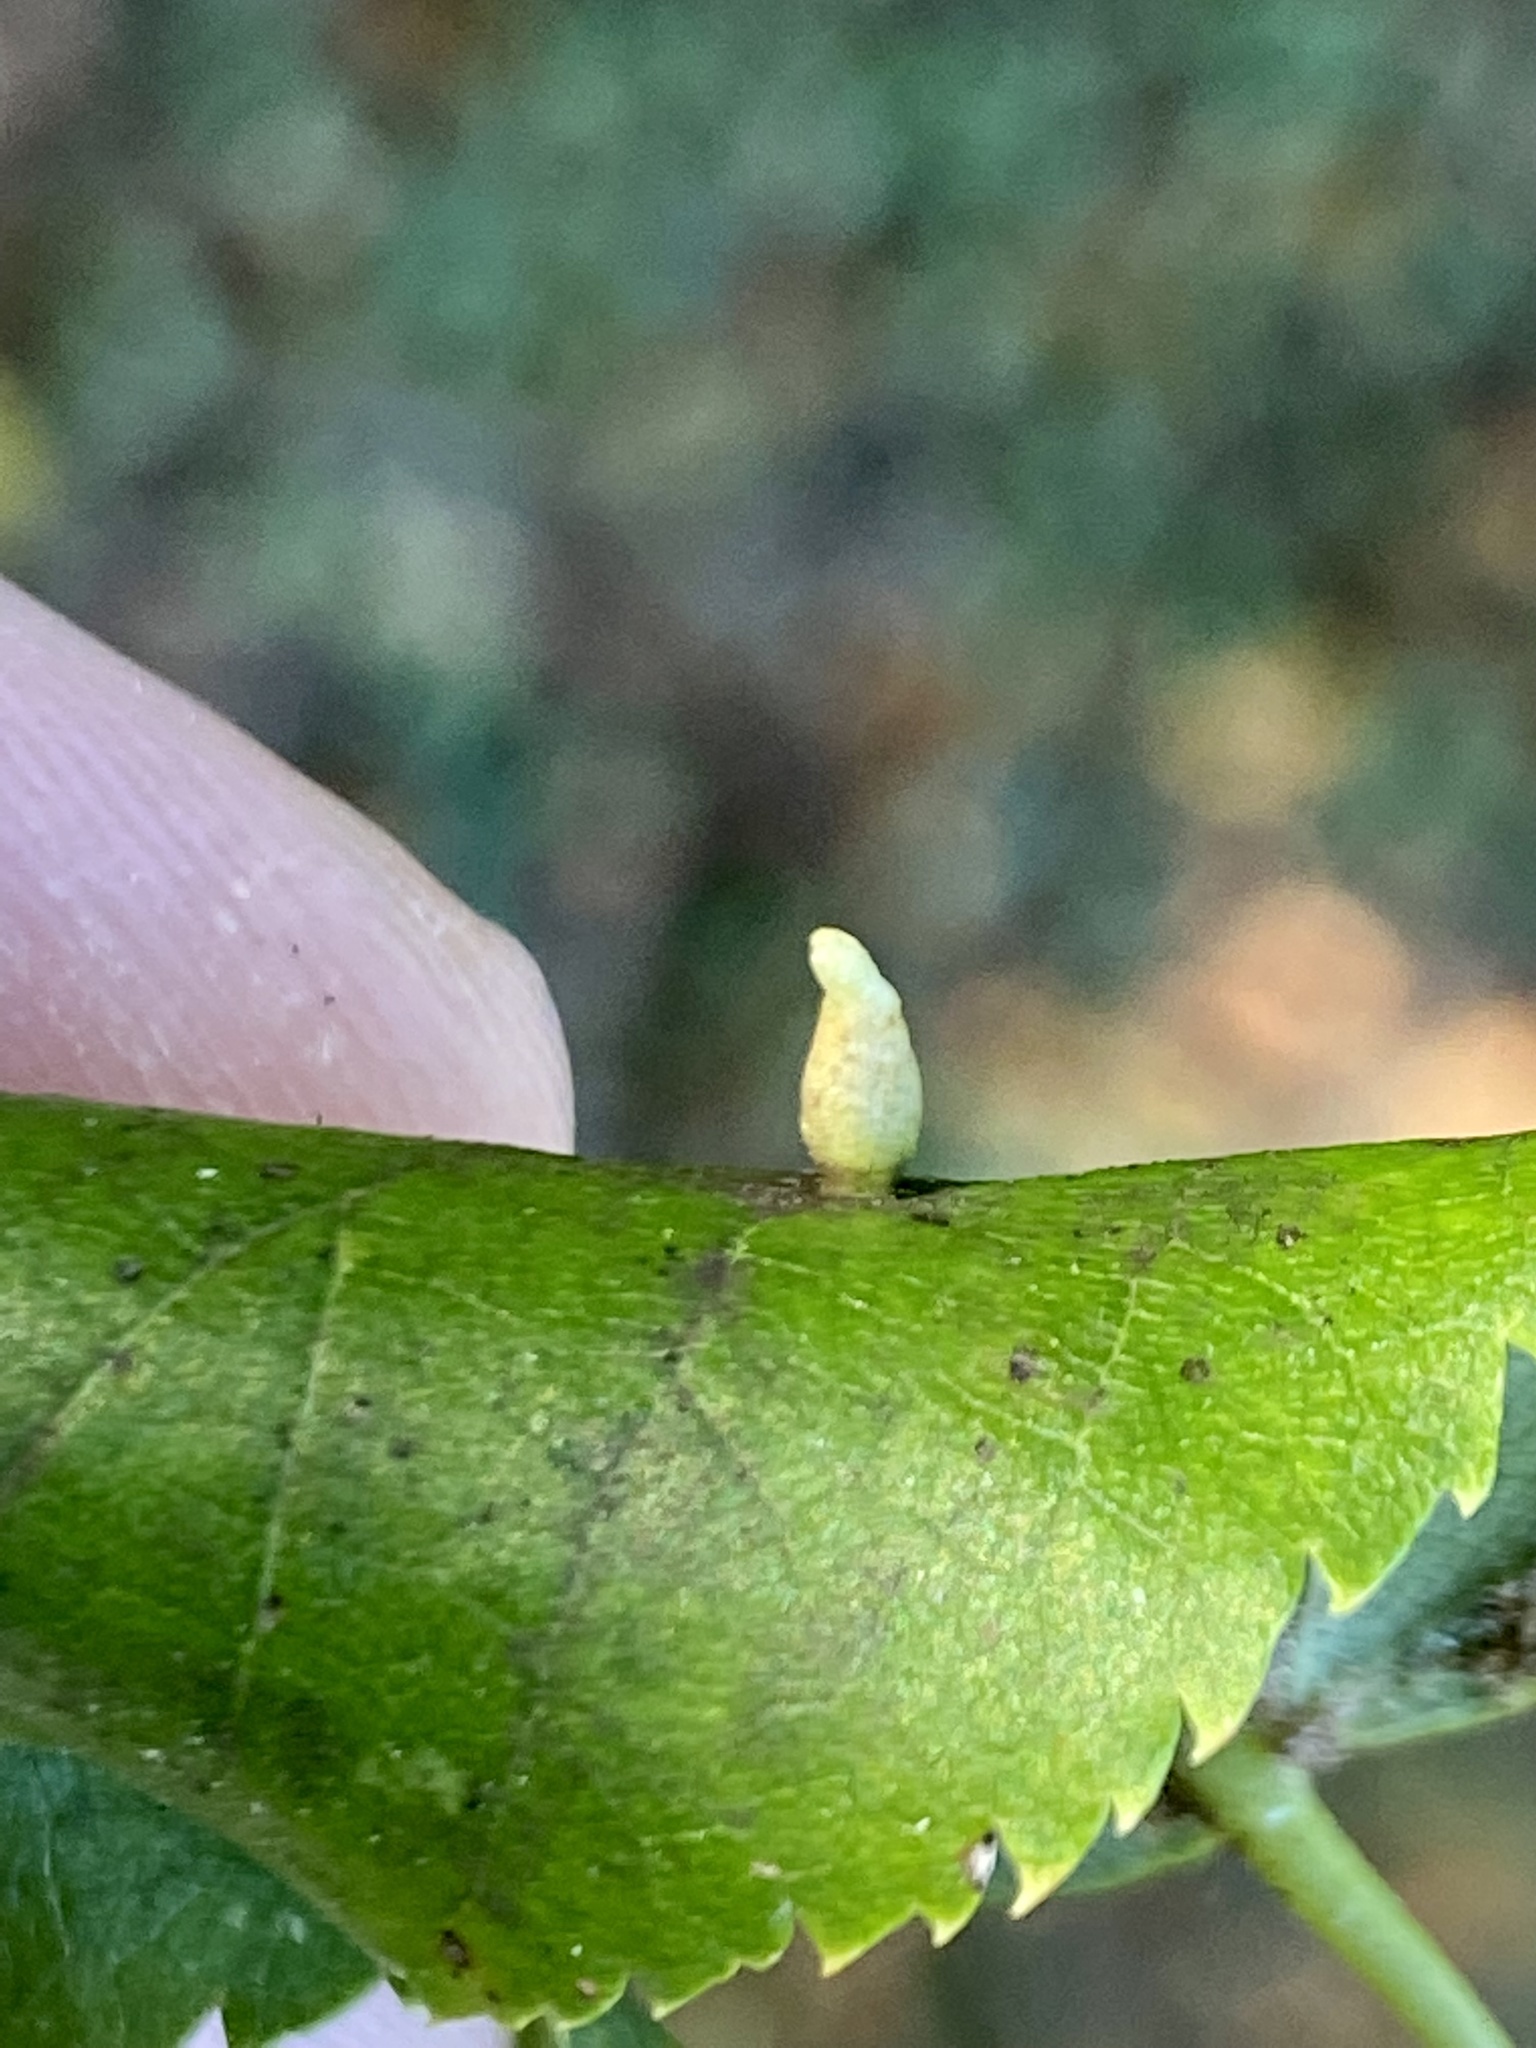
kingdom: Animalia
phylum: Arthropoda
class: Arachnida
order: Trombidiformes
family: Eriophyidae
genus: Eriophyes
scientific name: Eriophyes tiliae
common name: Red nail gall mite
